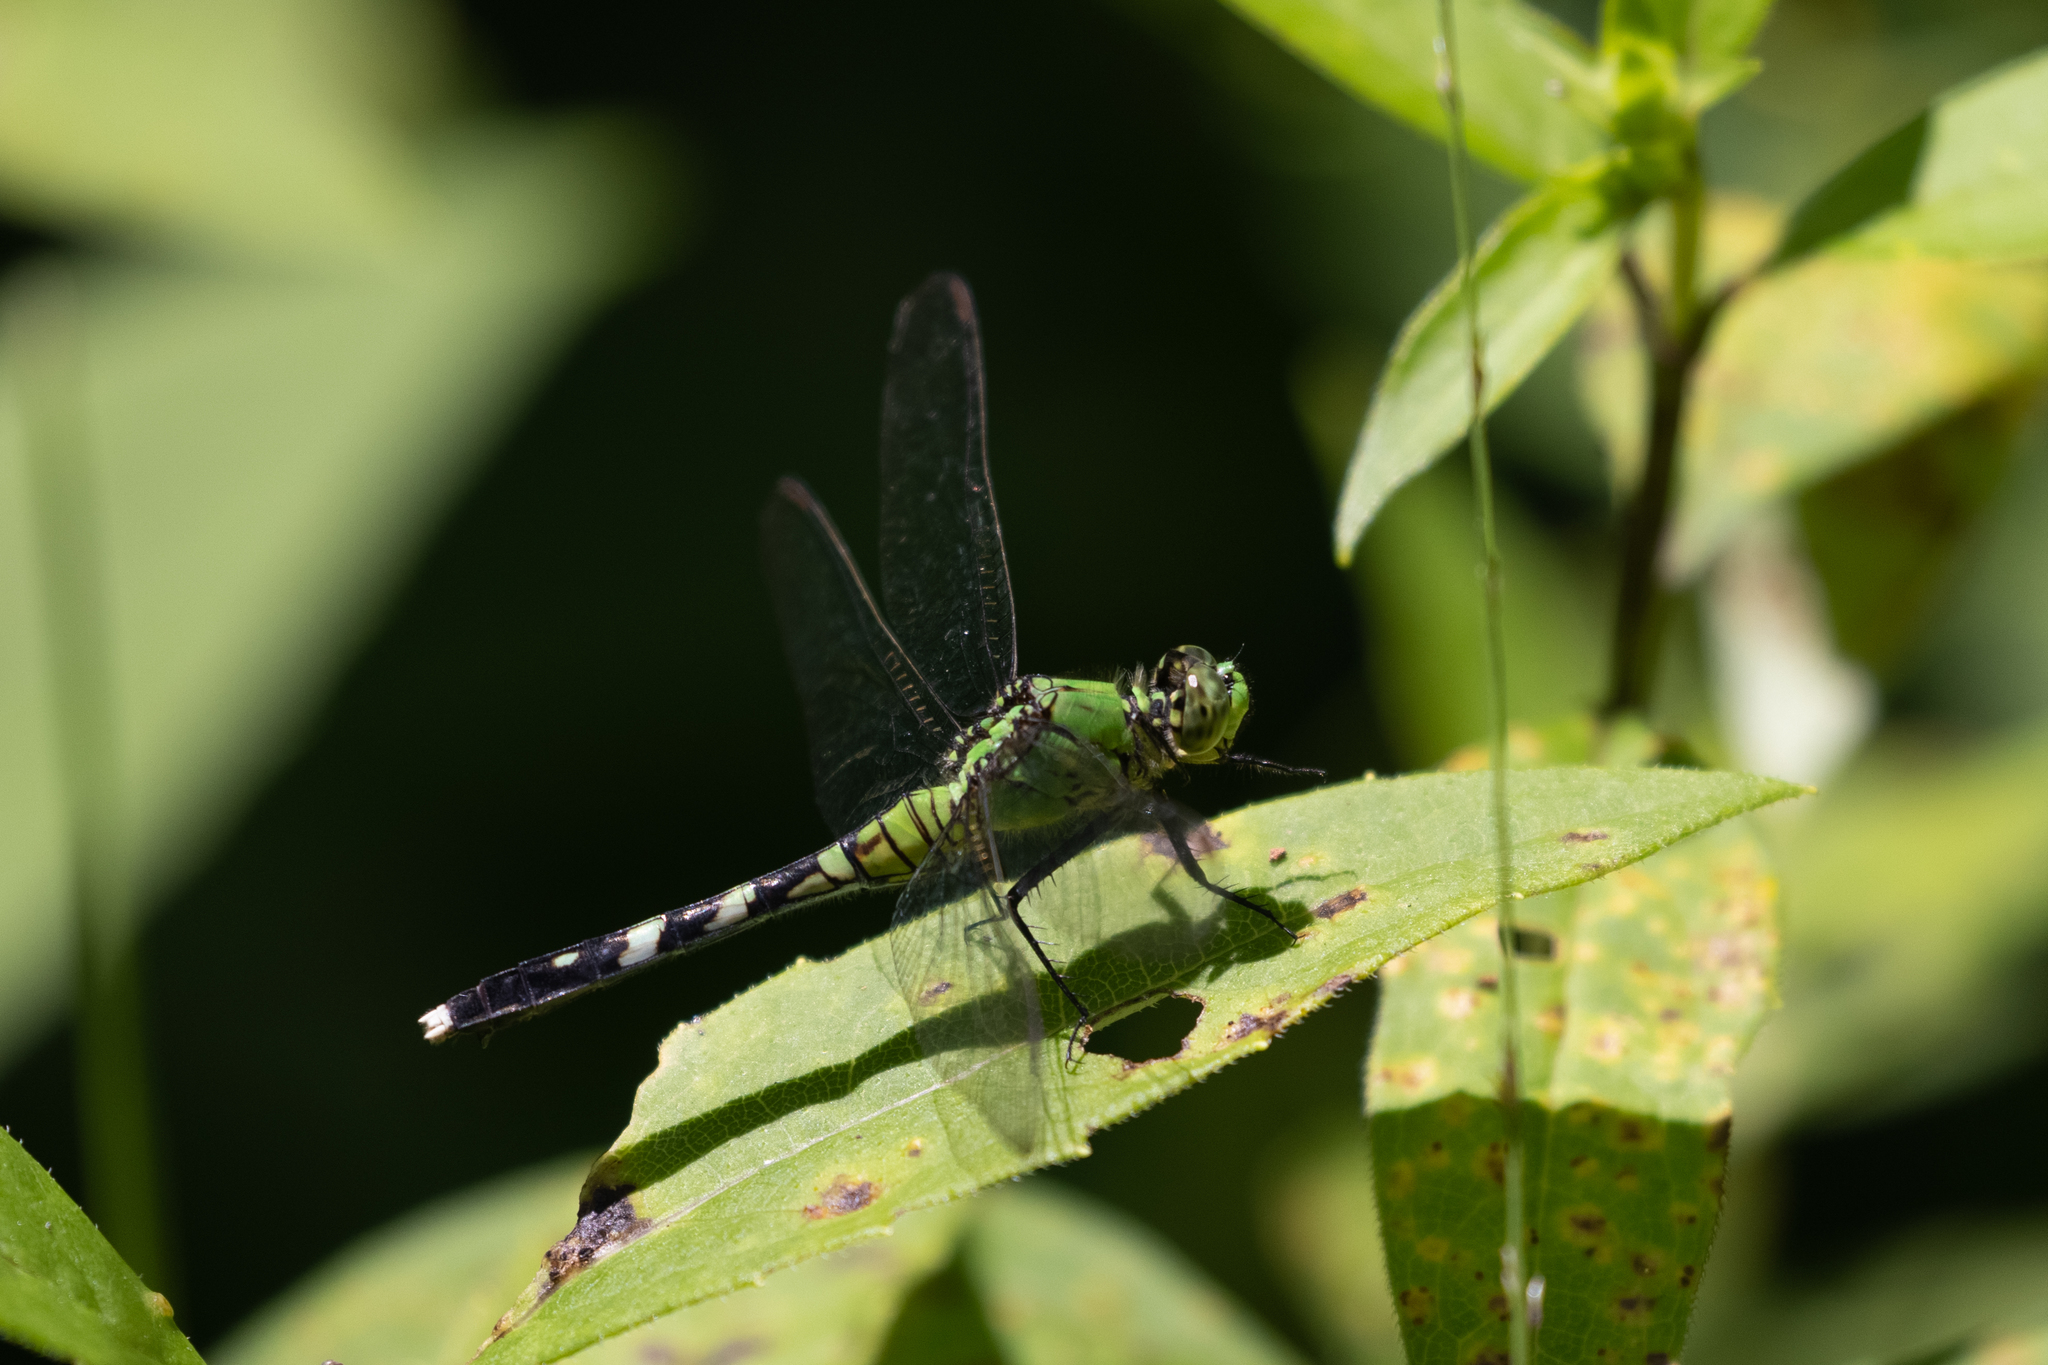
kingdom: Animalia
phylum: Arthropoda
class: Insecta
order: Odonata
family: Libellulidae
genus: Erythemis
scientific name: Erythemis simplicicollis
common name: Eastern pondhawk
